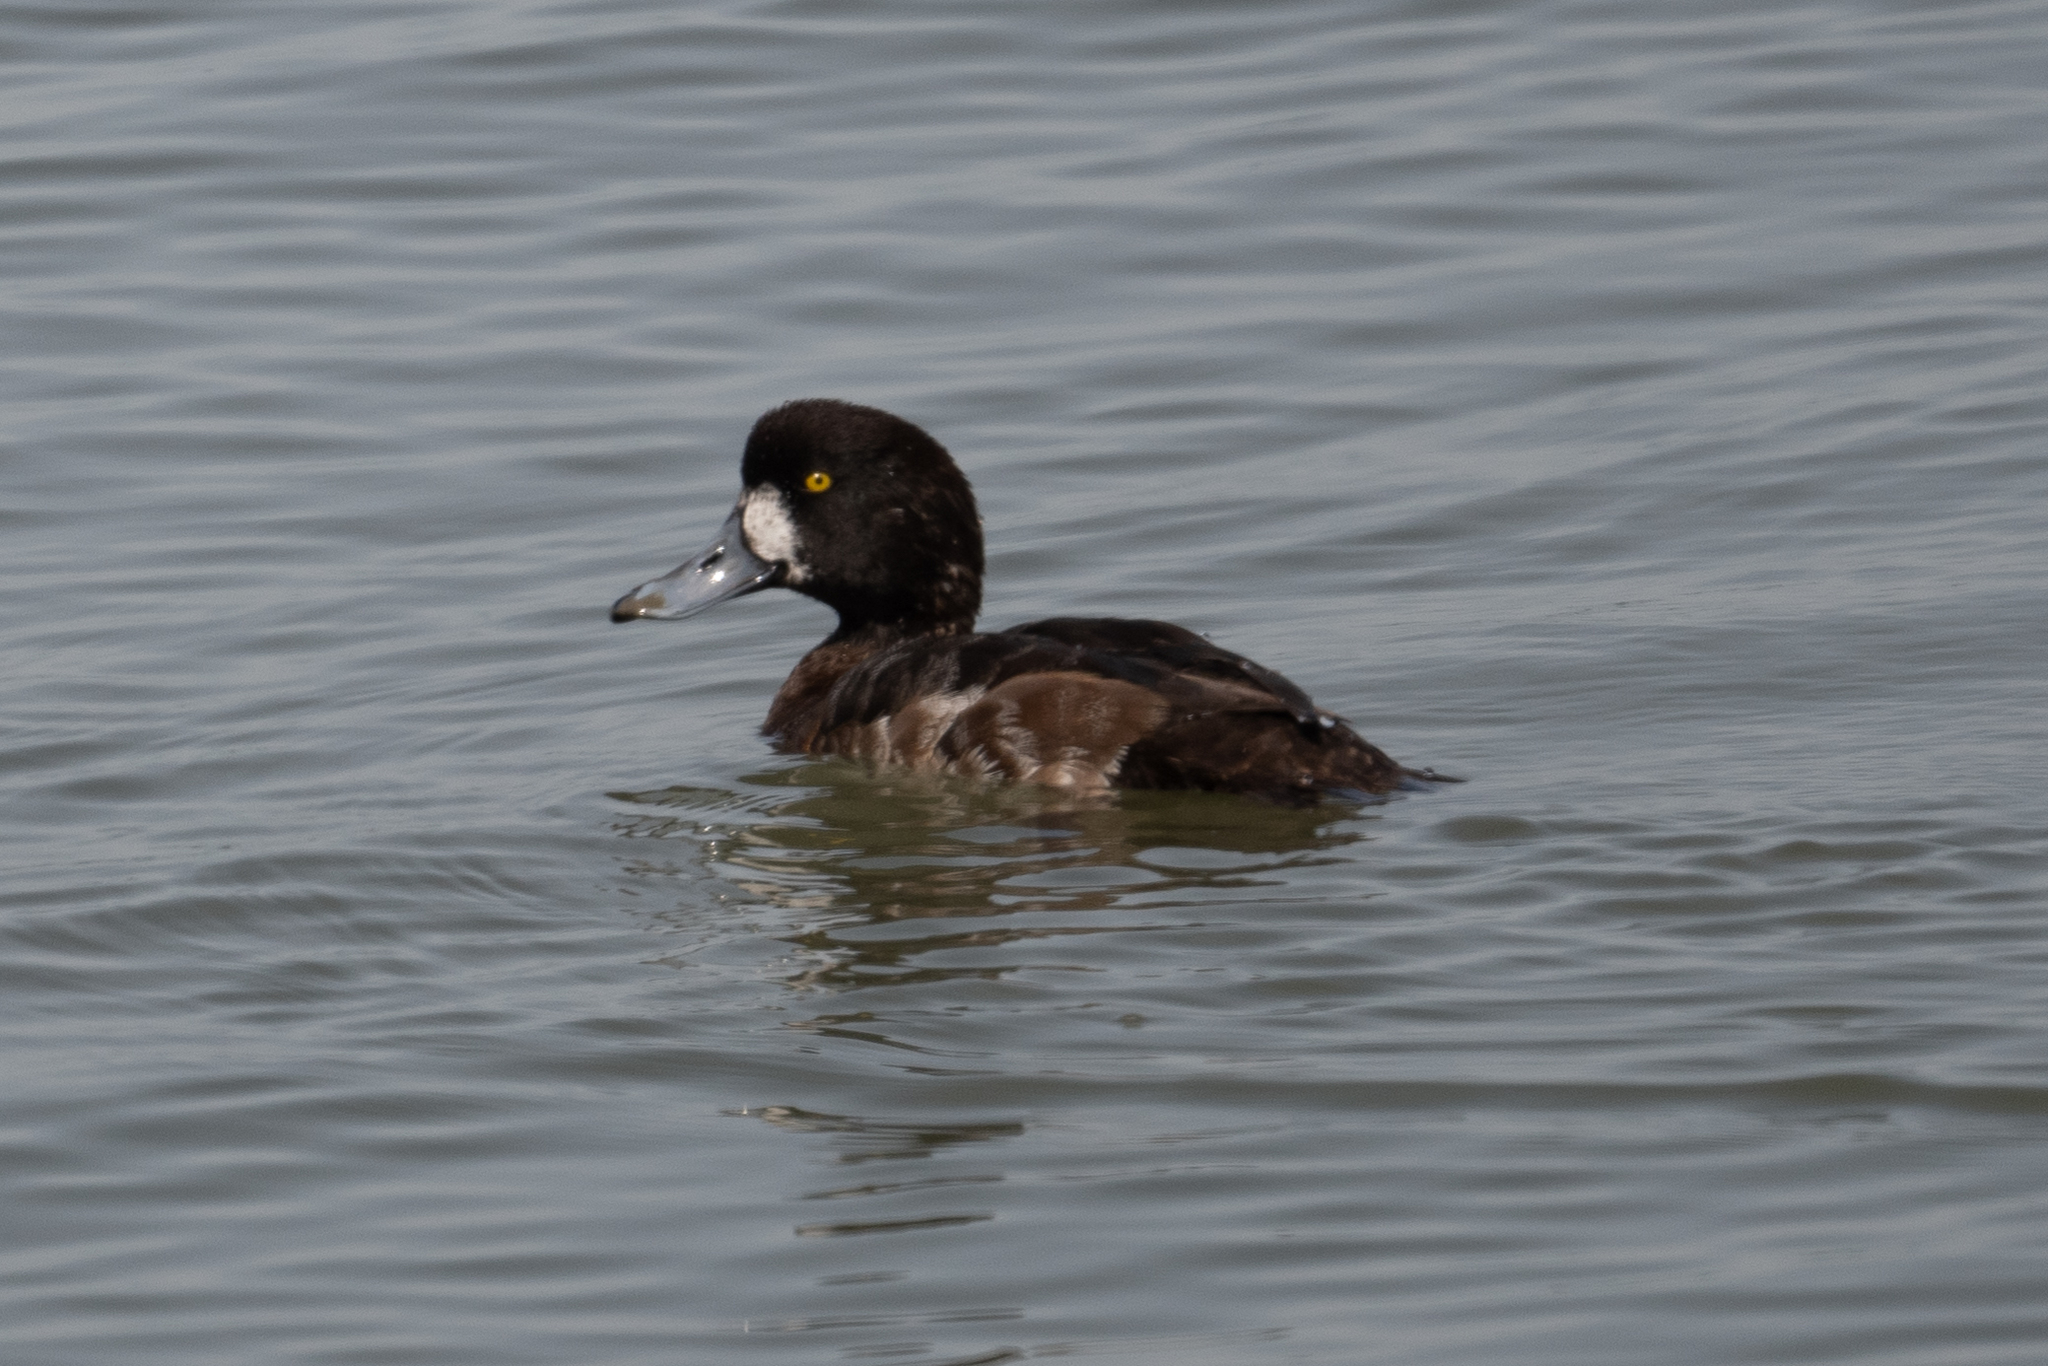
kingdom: Animalia
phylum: Chordata
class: Aves
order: Anseriformes
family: Anatidae
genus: Aythya
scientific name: Aythya marila
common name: Greater scaup
